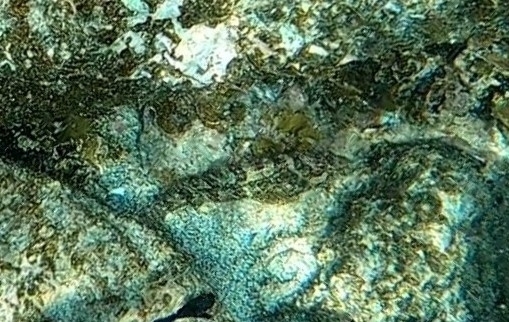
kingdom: Animalia
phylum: Chordata
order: Perciformes
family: Labrisomidae
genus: Labrisomus
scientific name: Labrisomus nuchipinnis
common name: Hairy blenny
